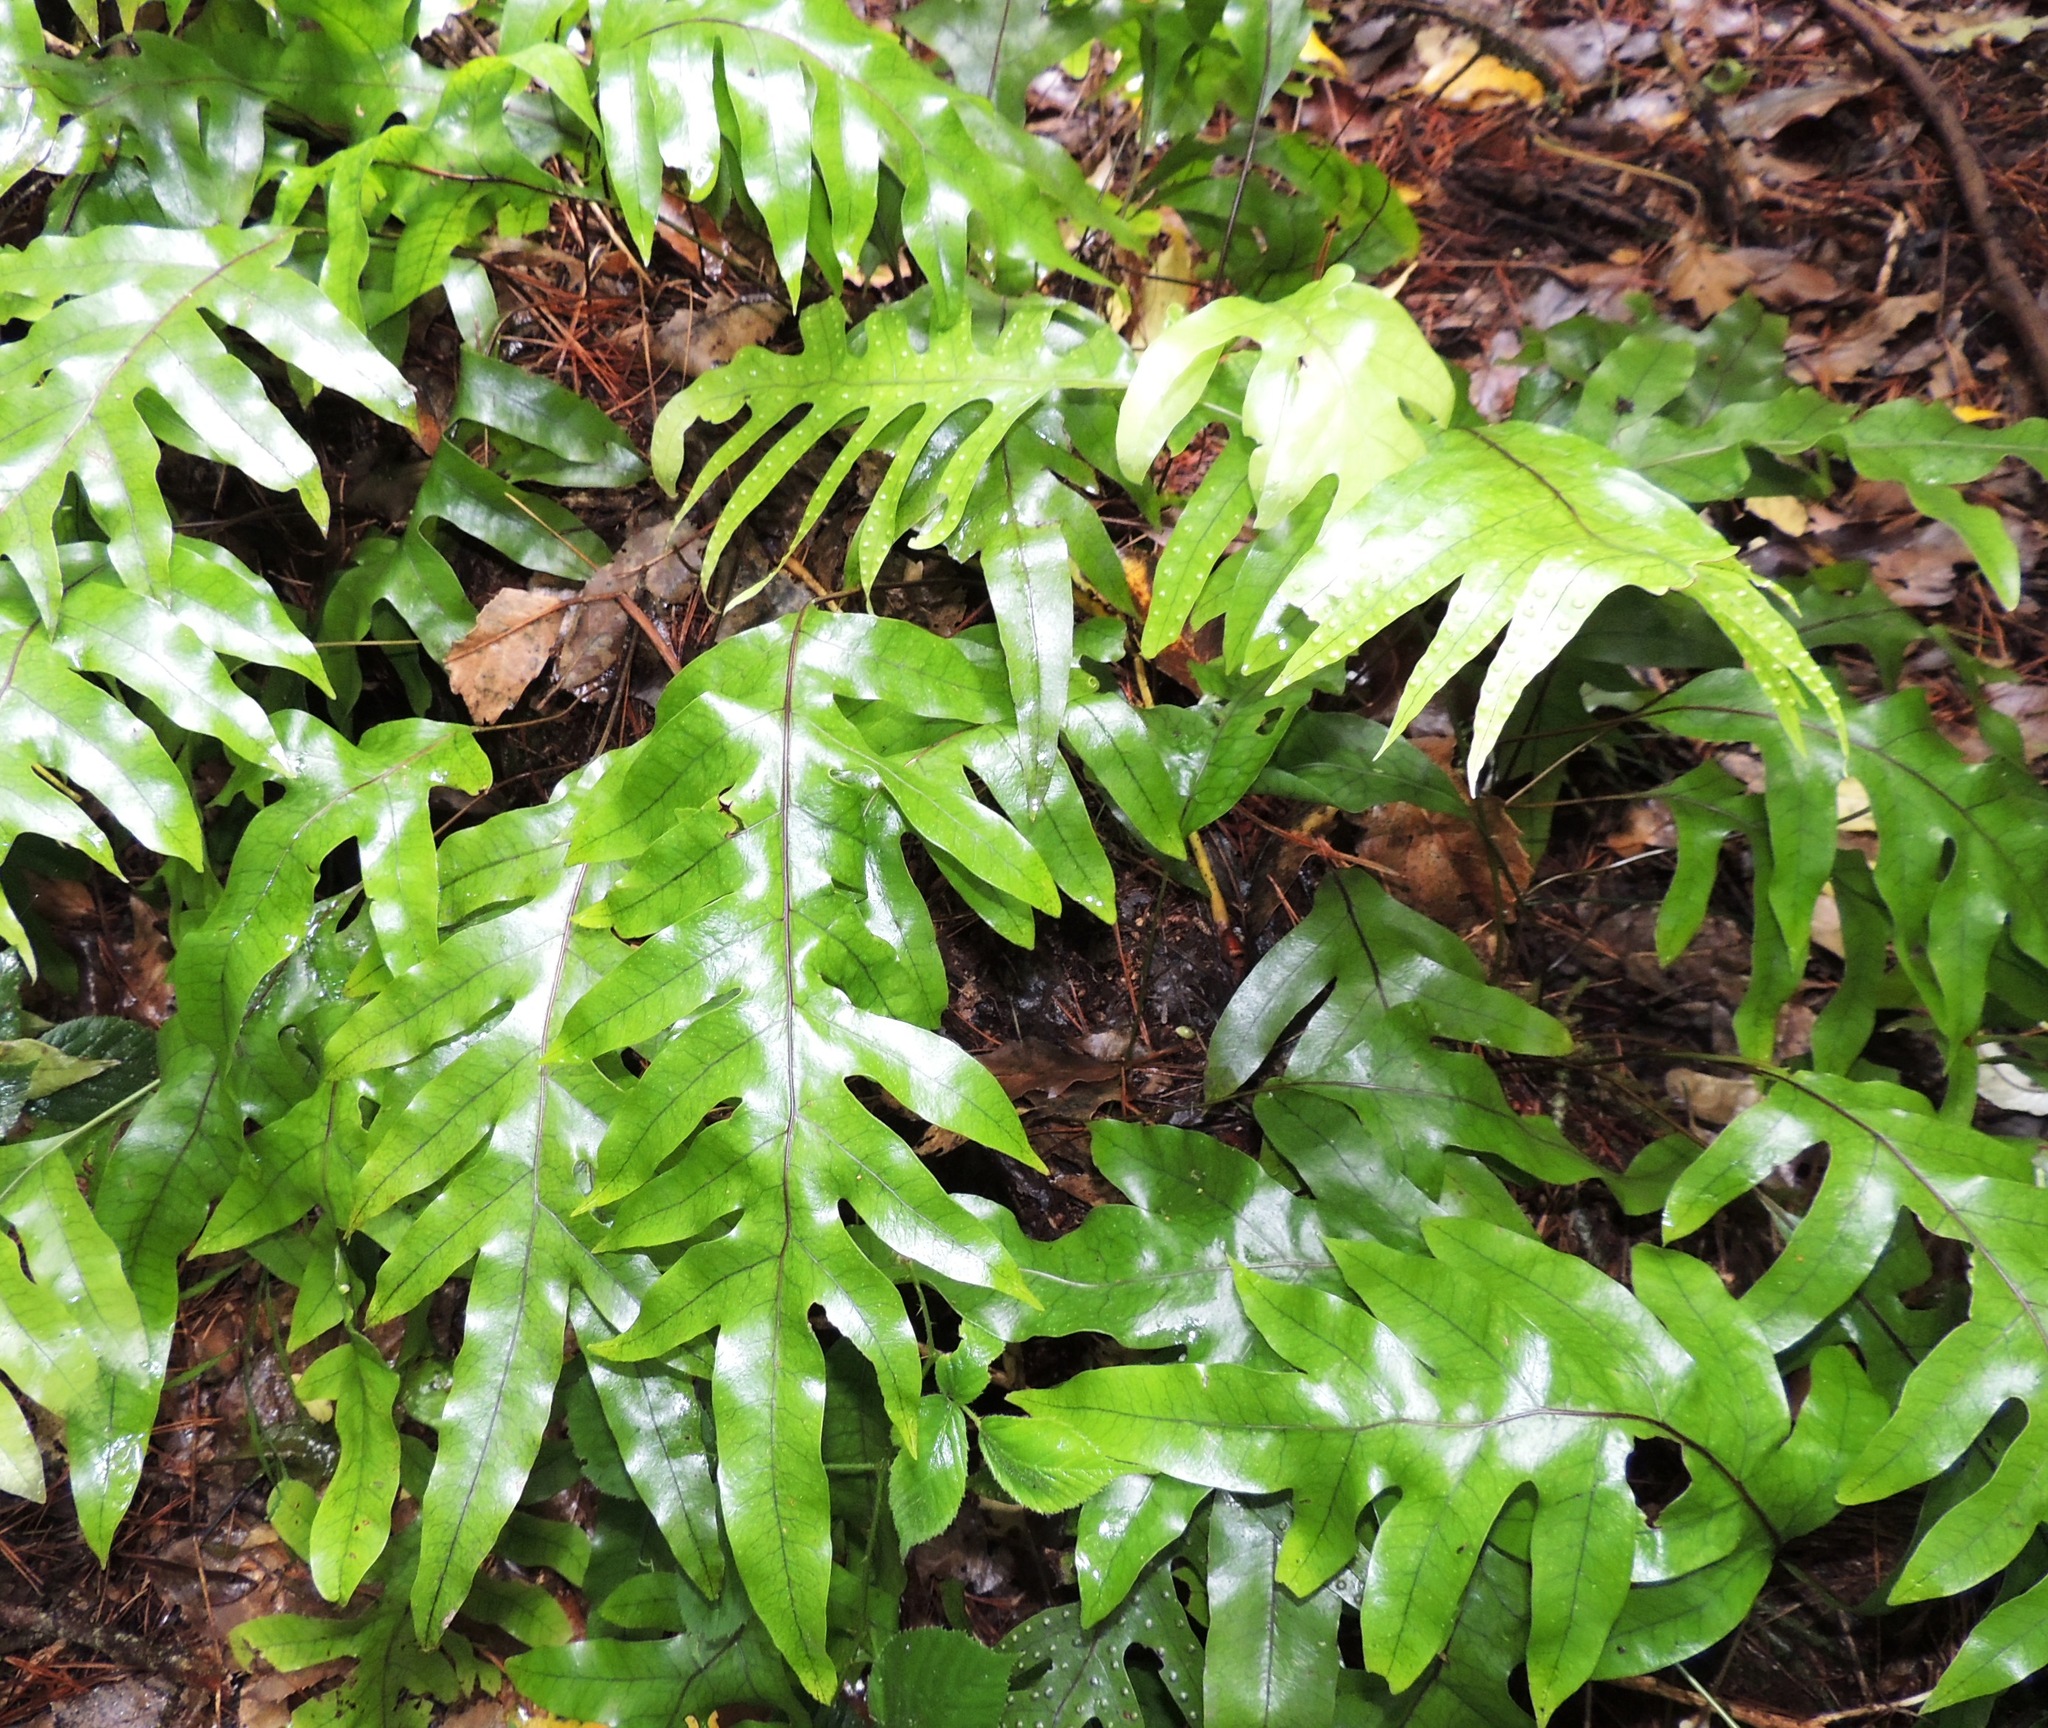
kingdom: Plantae
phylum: Tracheophyta
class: Polypodiopsida
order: Polypodiales
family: Polypodiaceae
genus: Lecanopteris
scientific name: Lecanopteris pustulata
